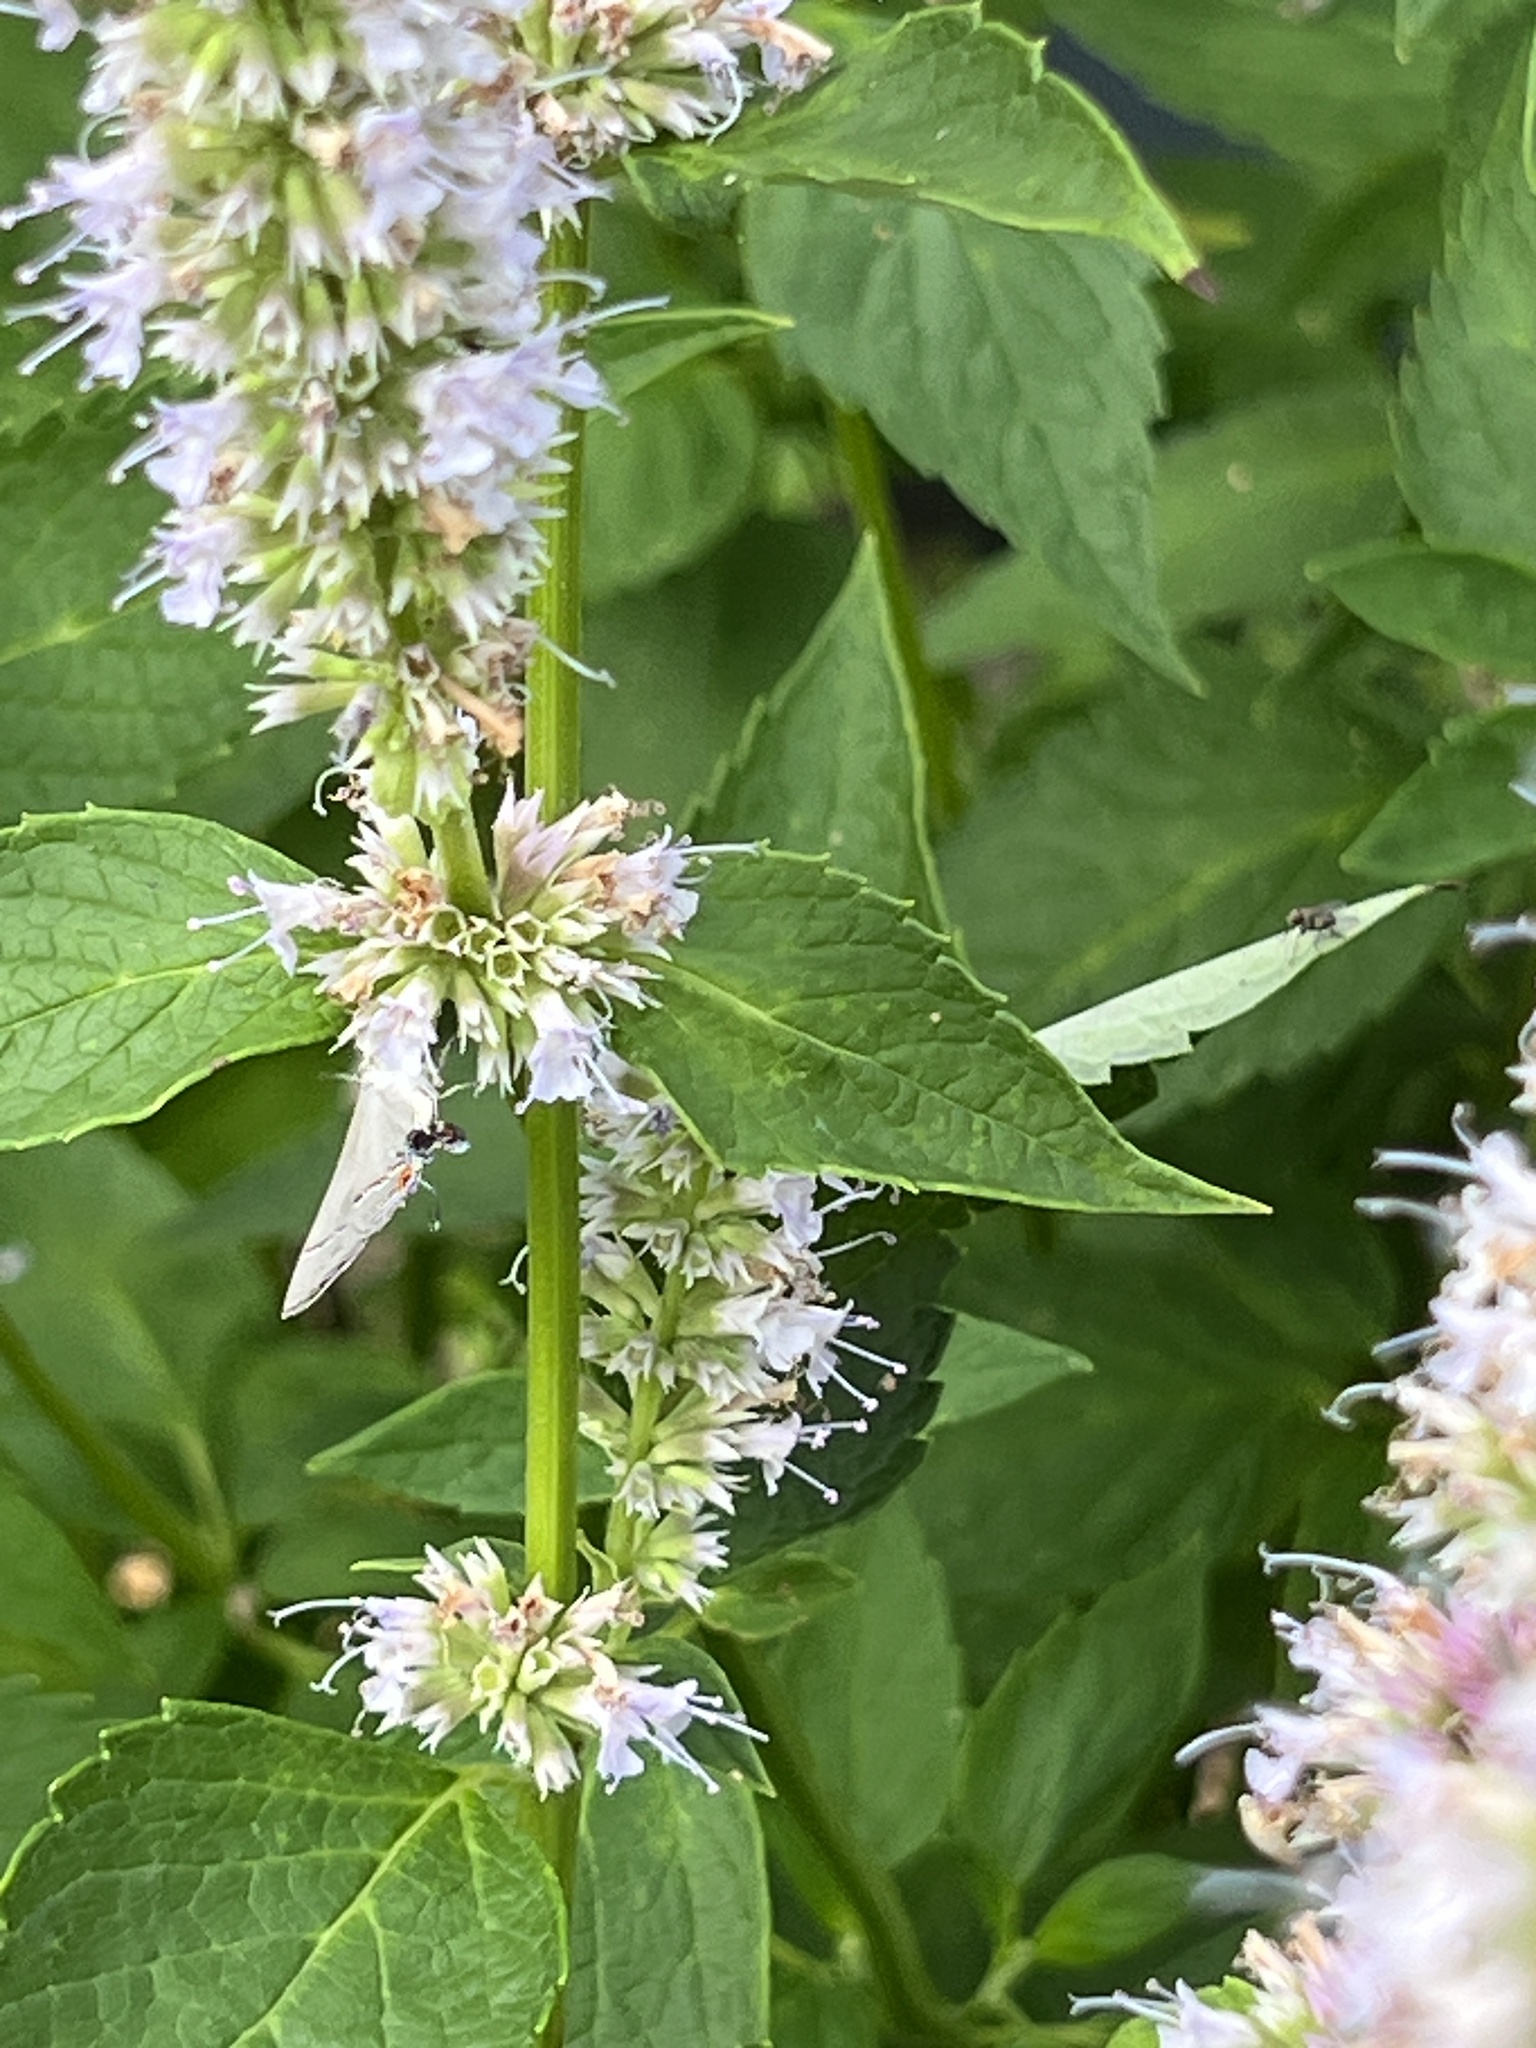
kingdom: Animalia
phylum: Arthropoda
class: Insecta
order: Lepidoptera
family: Lycaenidae
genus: Strymon
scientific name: Strymon melinus
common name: Gray hairstreak
